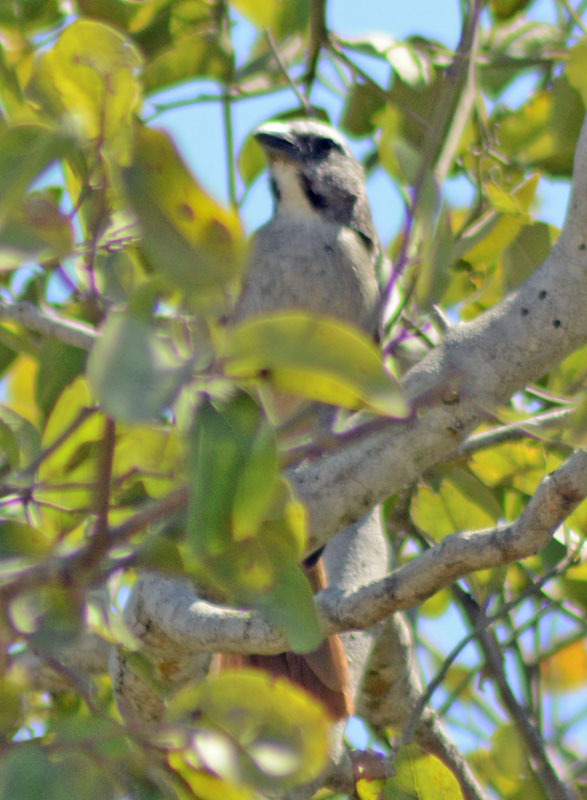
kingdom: Animalia
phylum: Chordata
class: Aves
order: Passeriformes
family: Thraupidae
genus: Saltator
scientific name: Saltator grandis
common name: Cinnamon-bellied saltator
